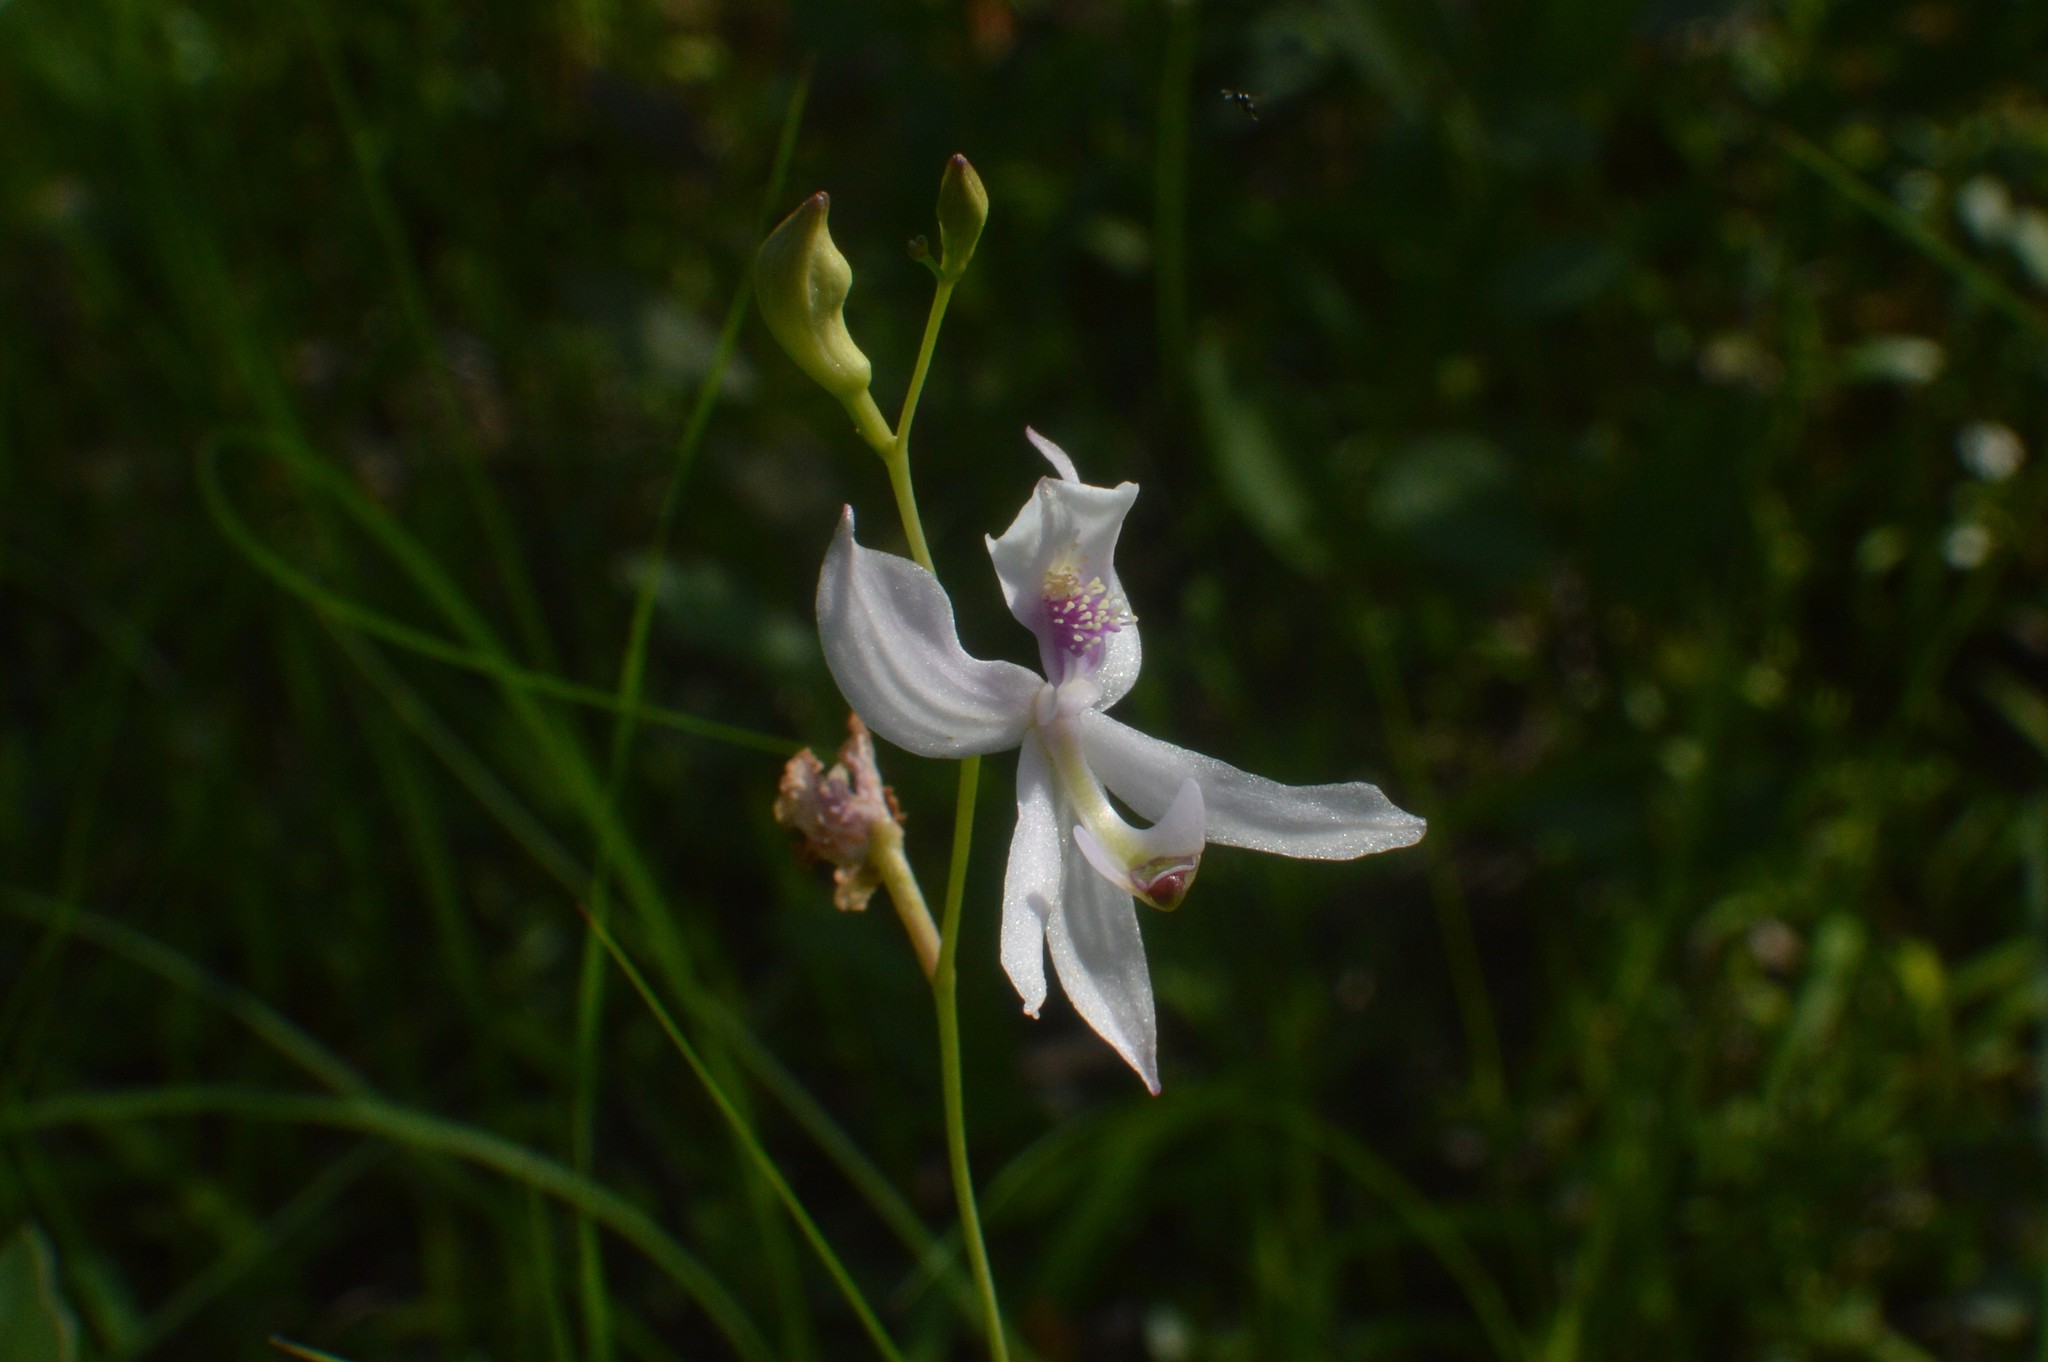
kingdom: Plantae
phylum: Tracheophyta
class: Liliopsida
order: Asparagales
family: Orchidaceae
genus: Calopogon
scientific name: Calopogon pallidus
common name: Pale grasspink
